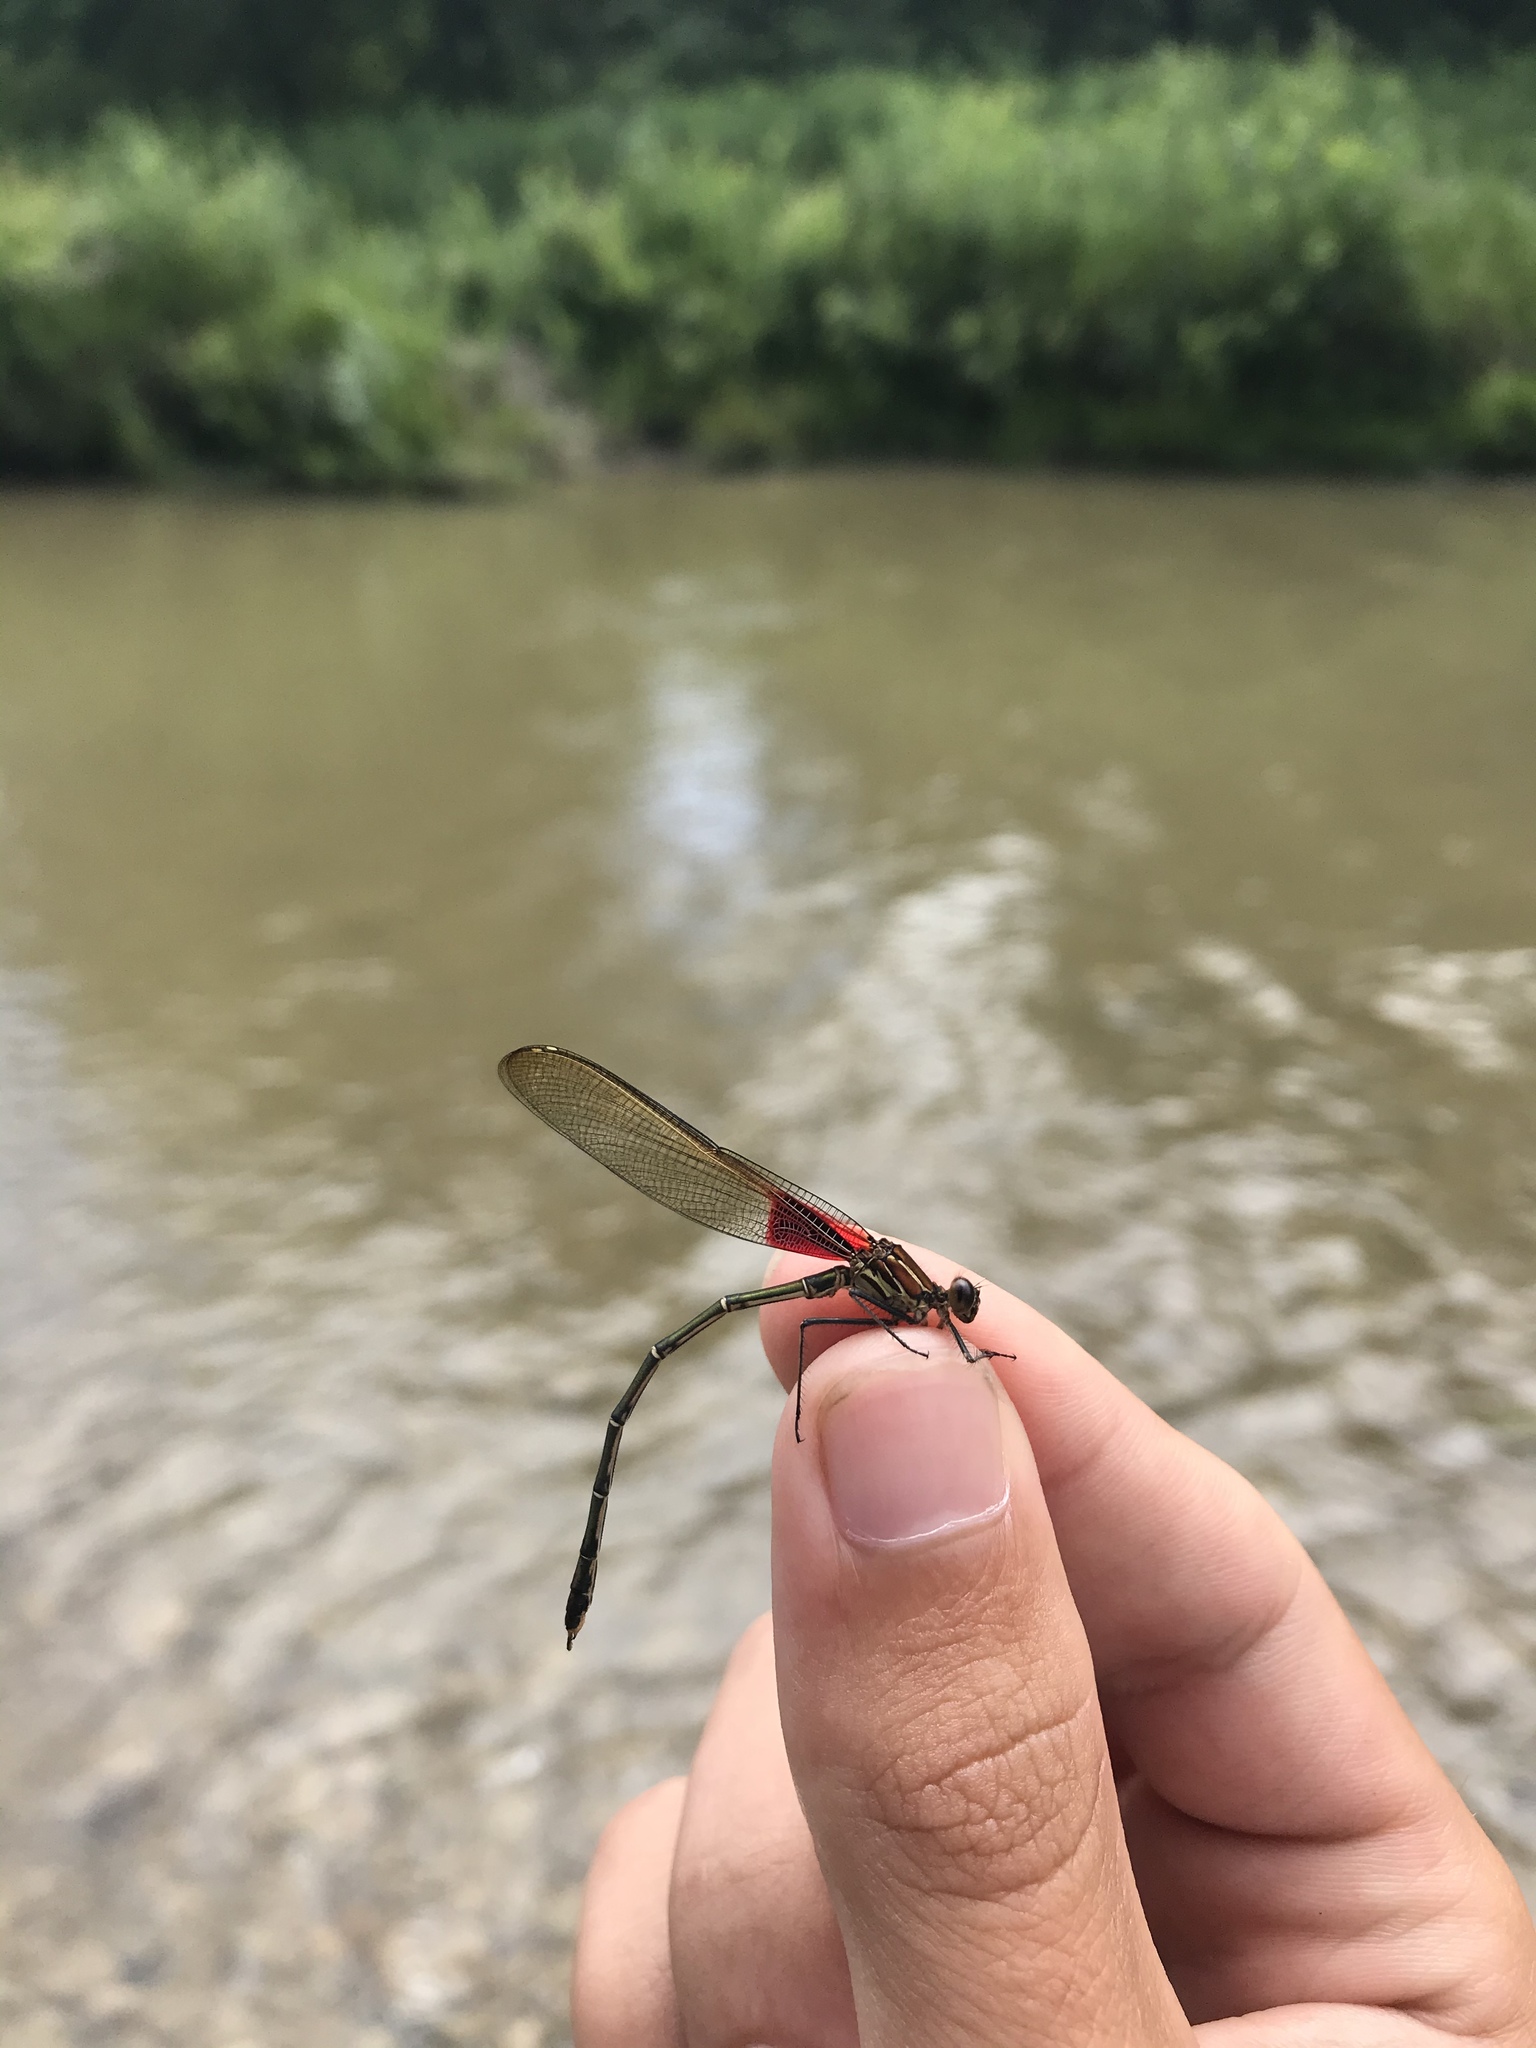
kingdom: Animalia
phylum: Arthropoda
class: Insecta
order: Odonata
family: Calopterygidae
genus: Hetaerina
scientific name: Hetaerina americana
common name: American rubyspot
